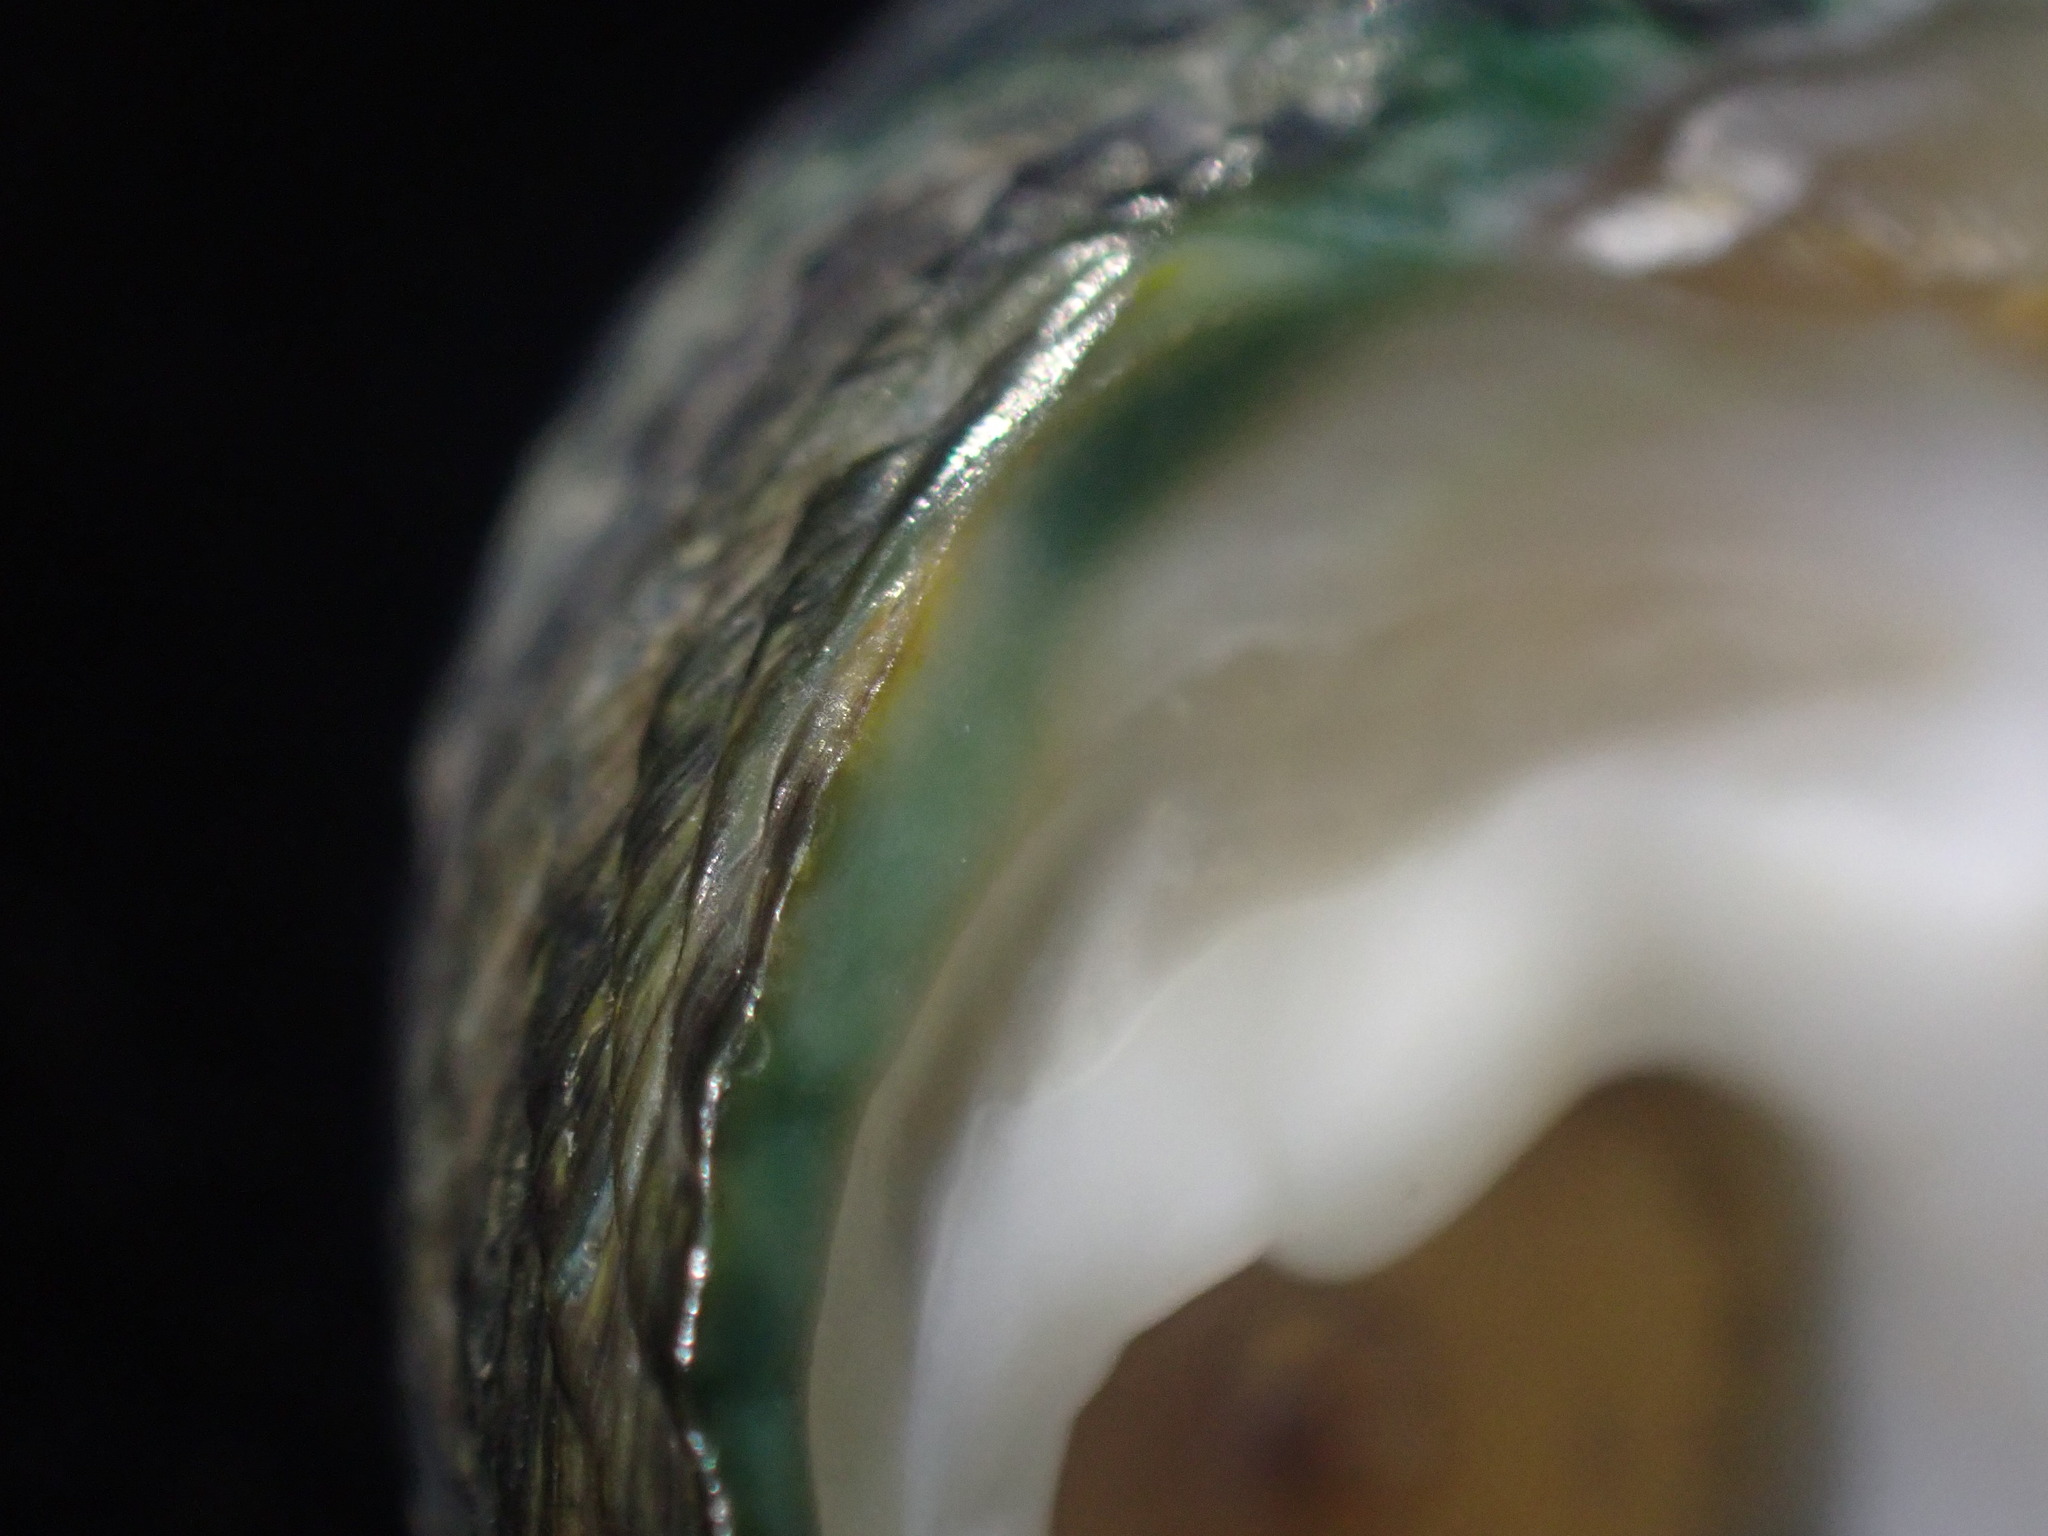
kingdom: Animalia
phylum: Mollusca
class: Gastropoda
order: Trochida
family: Trochidae
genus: Diloma
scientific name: Diloma zelandicum
